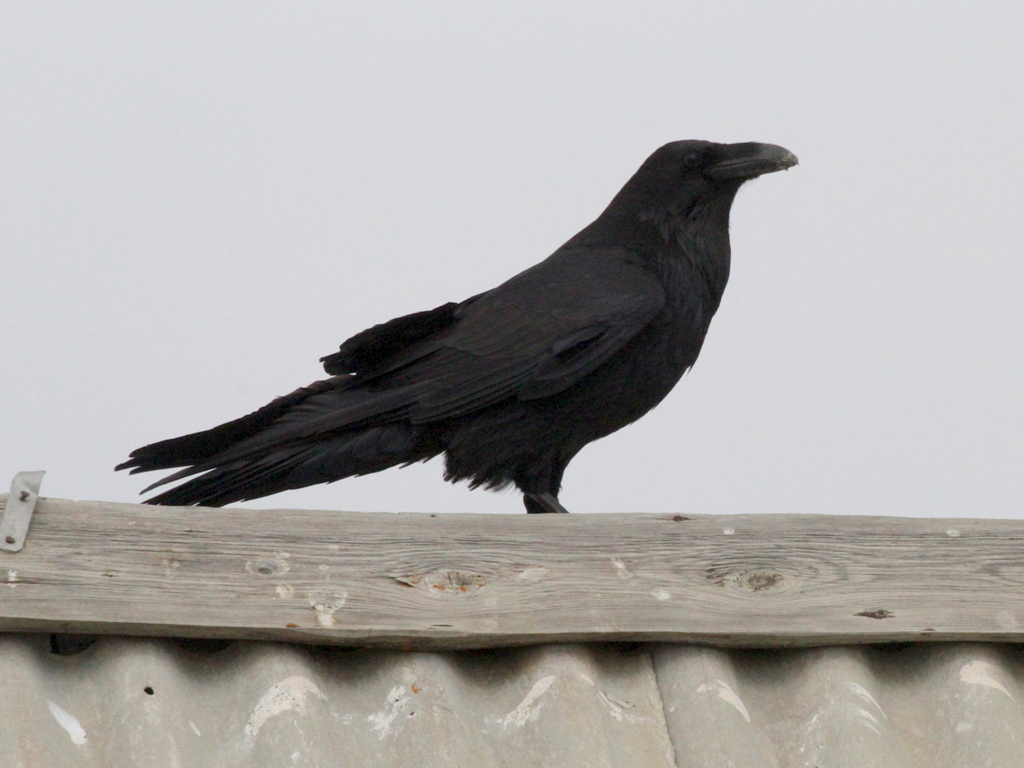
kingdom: Animalia
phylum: Chordata
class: Aves
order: Passeriformes
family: Corvidae
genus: Corvus
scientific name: Corvus corax
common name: Common raven
